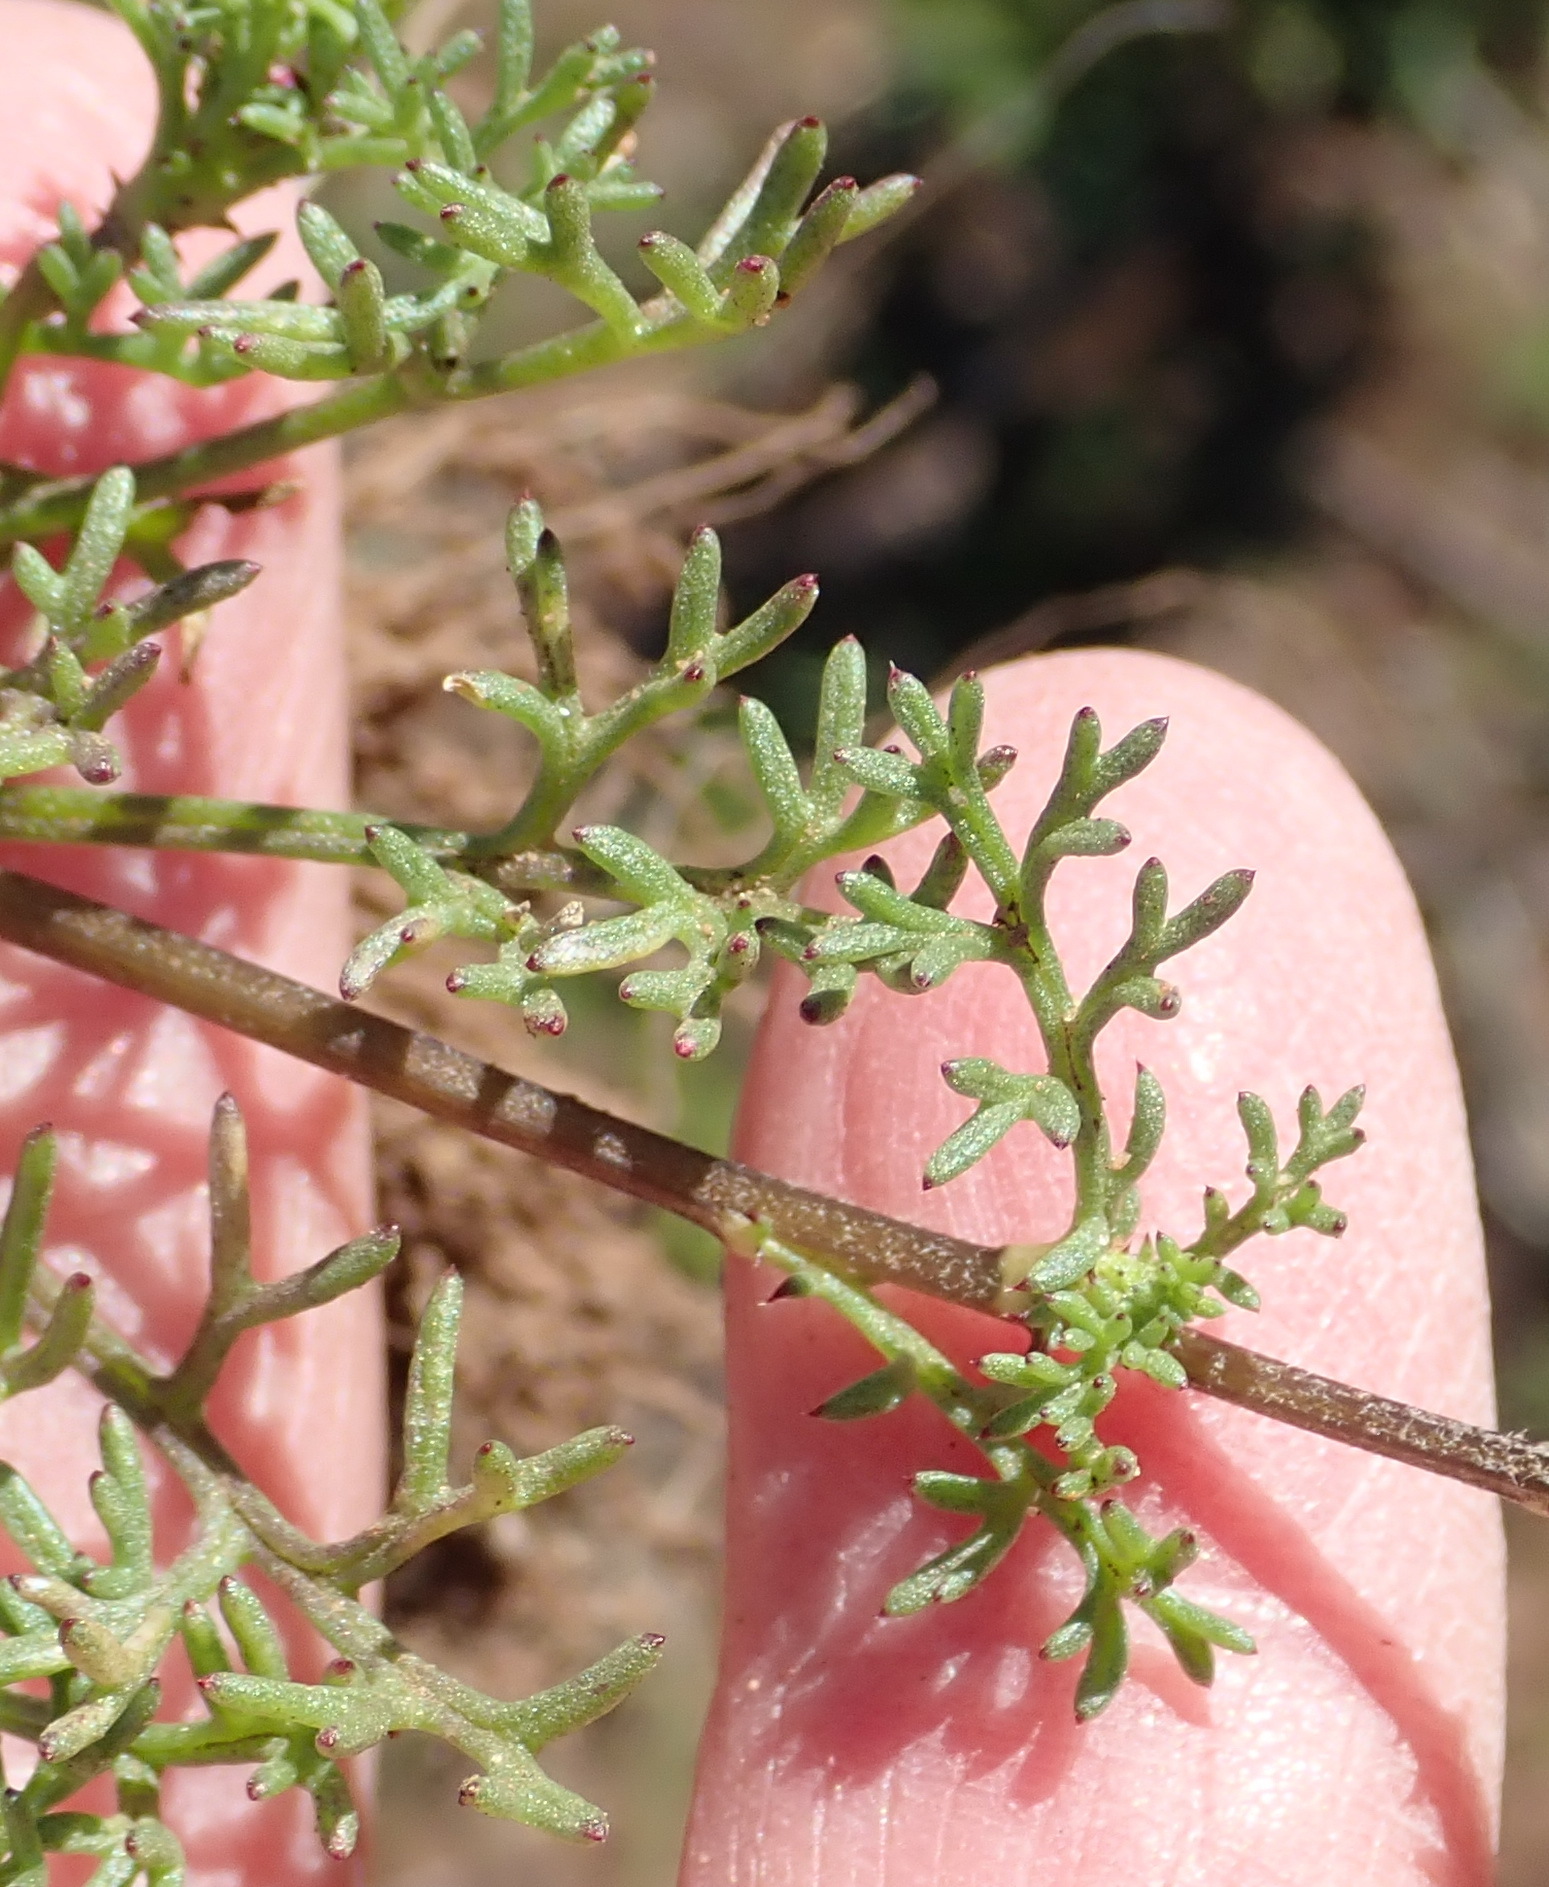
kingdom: Plantae
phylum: Tracheophyta
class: Magnoliopsida
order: Asterales
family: Asteraceae
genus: Ursinia
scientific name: Ursinia nana
